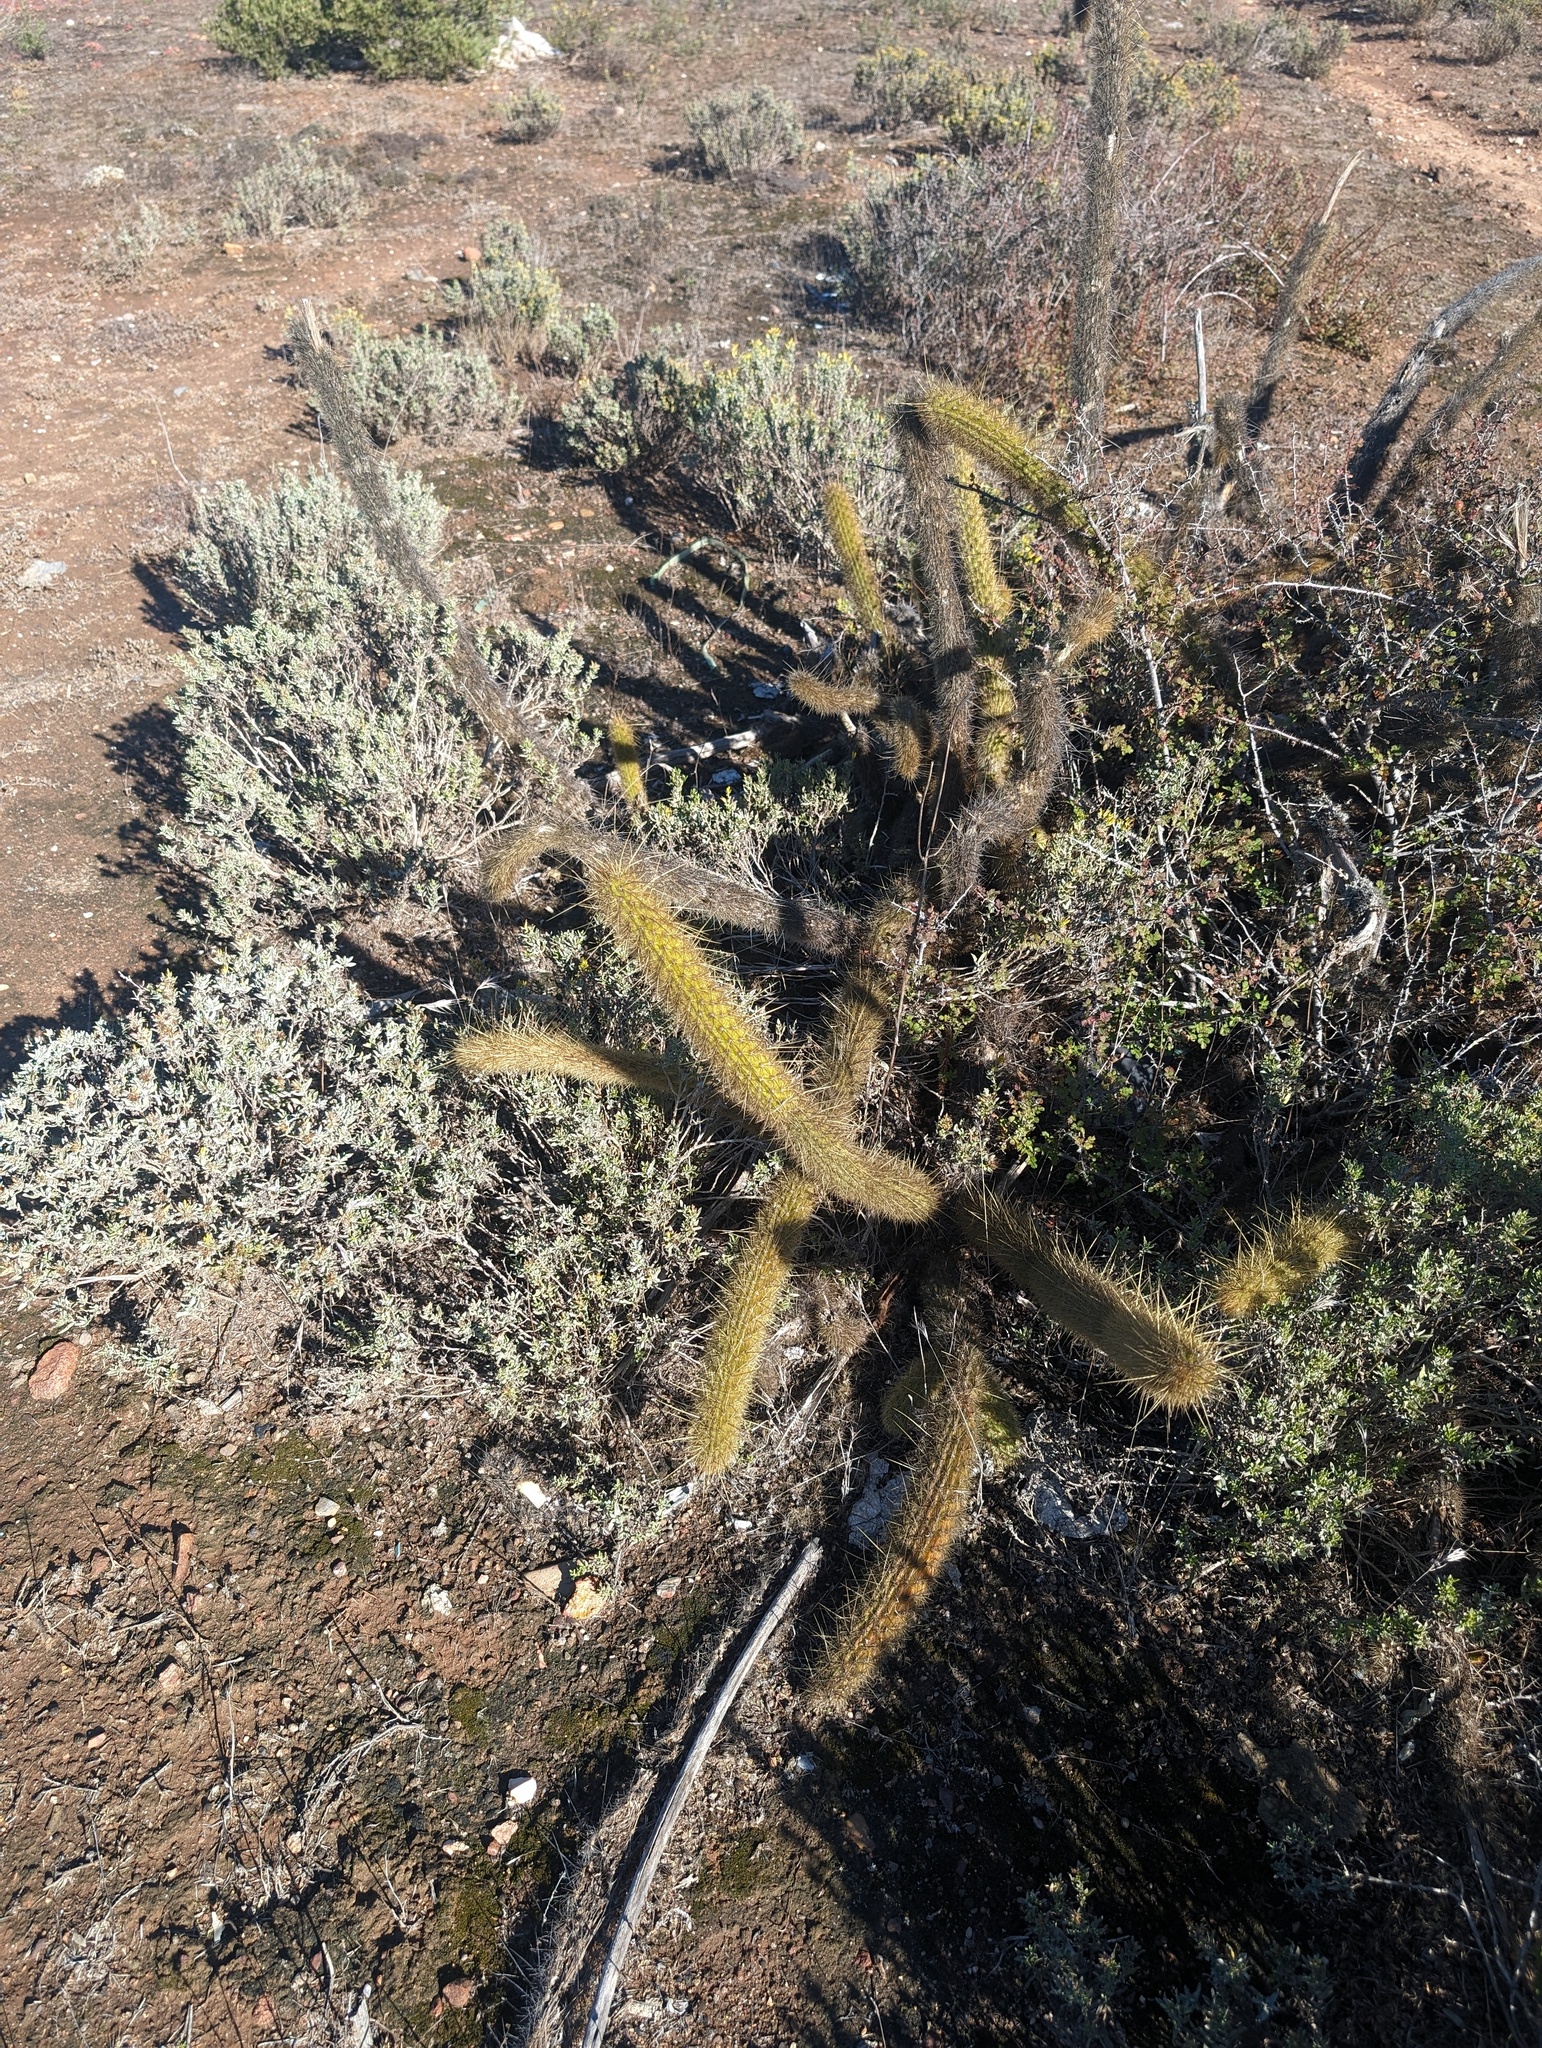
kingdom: Plantae
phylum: Tracheophyta
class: Magnoliopsida
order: Caryophyllales
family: Cactaceae
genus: Bergerocactus
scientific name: Bergerocactus emoryi
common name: Golden snakecactus
